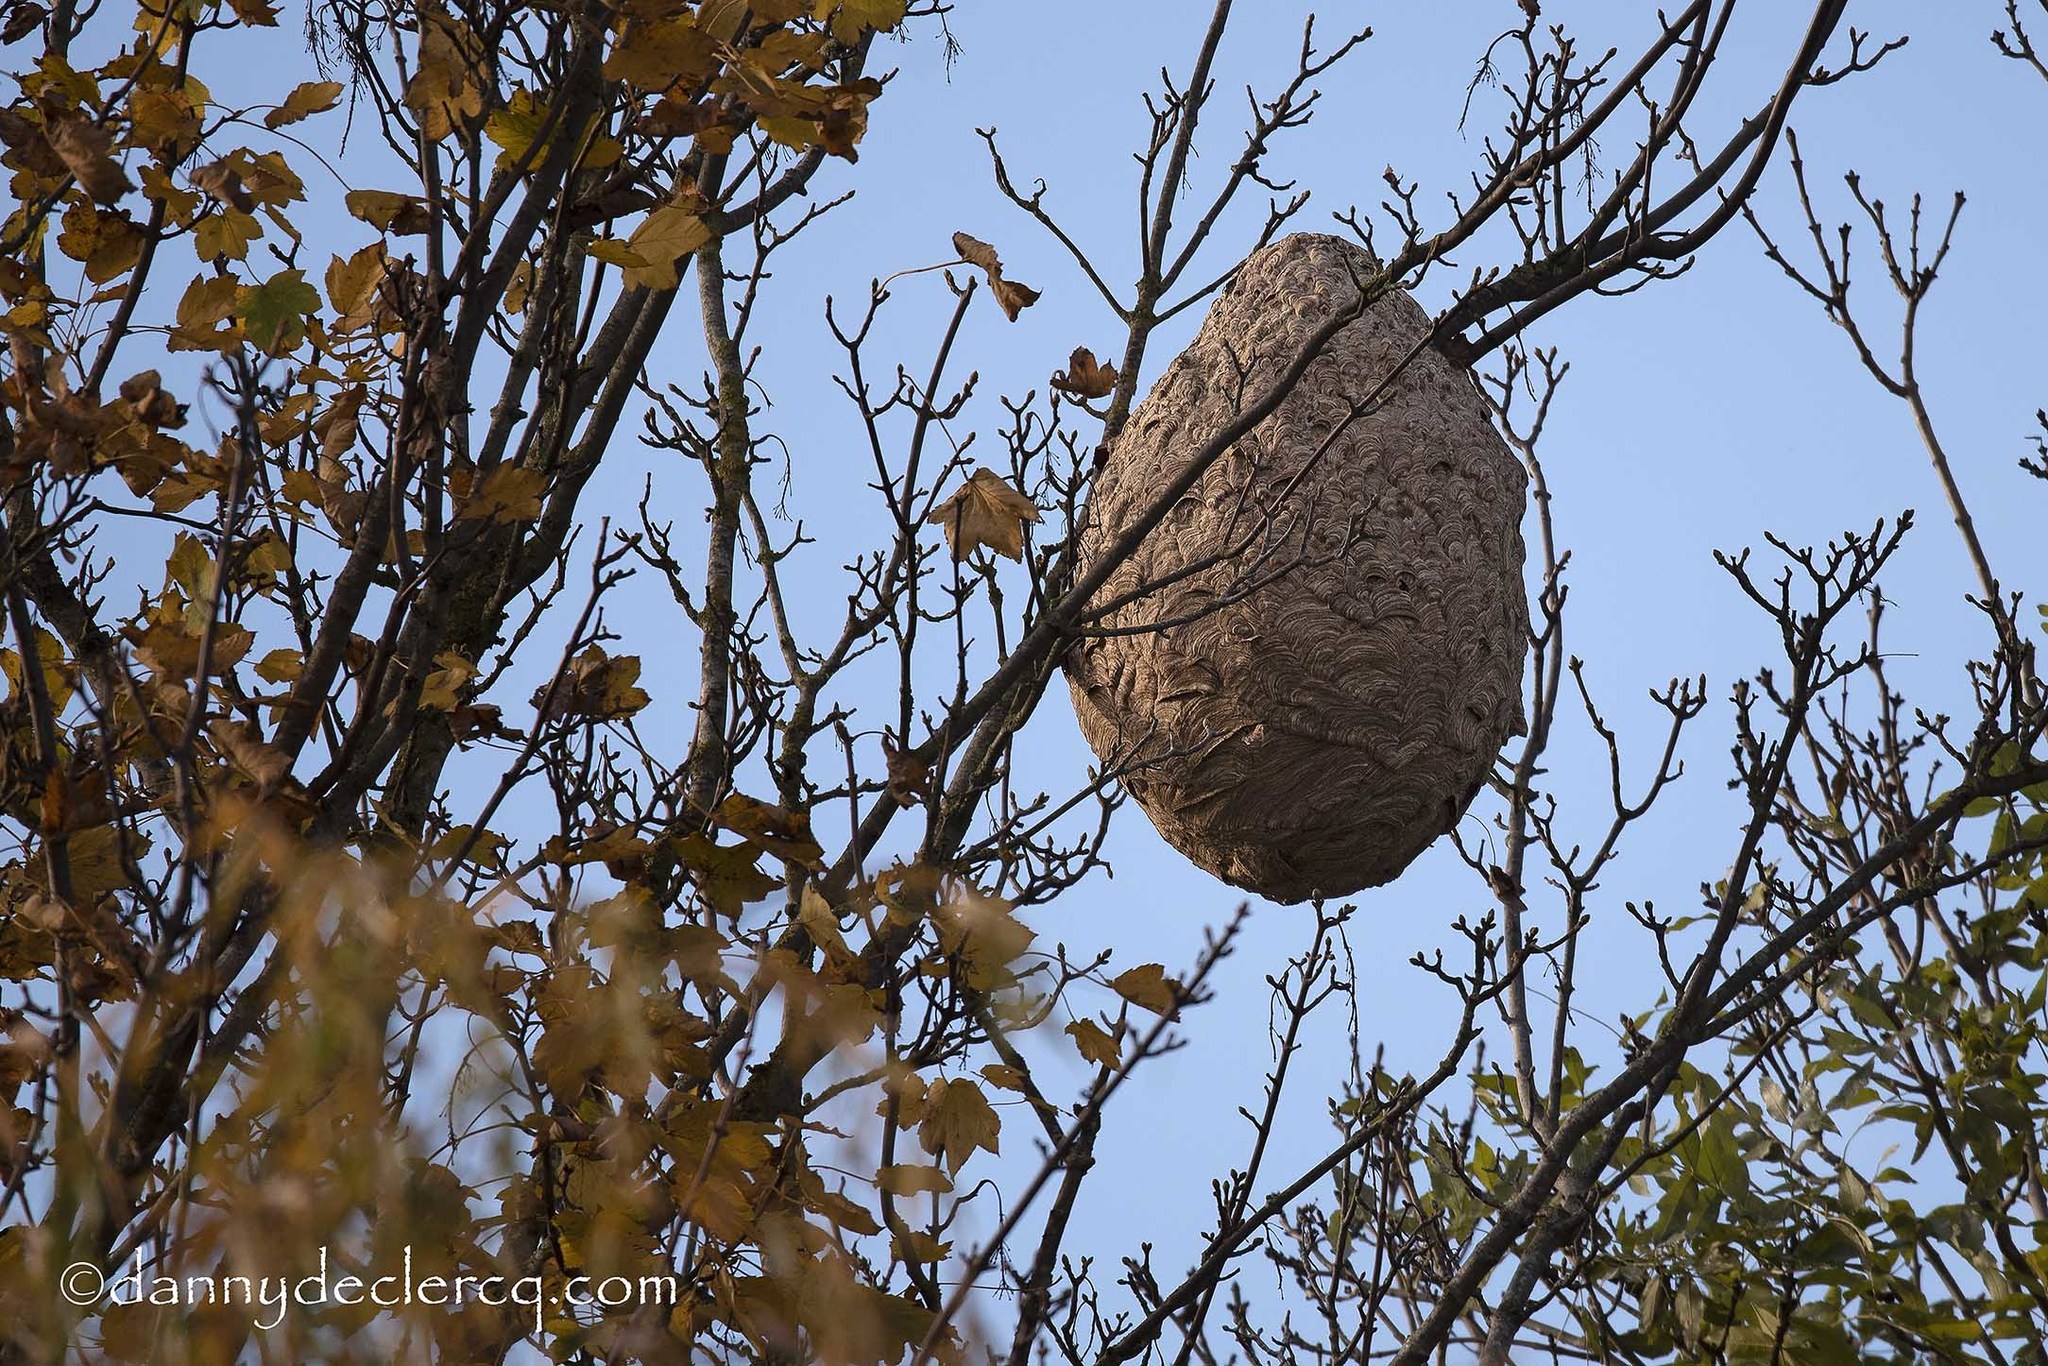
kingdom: Animalia
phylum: Arthropoda
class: Insecta
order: Hymenoptera
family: Vespidae
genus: Vespa
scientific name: Vespa velutina
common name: Asian hornet
